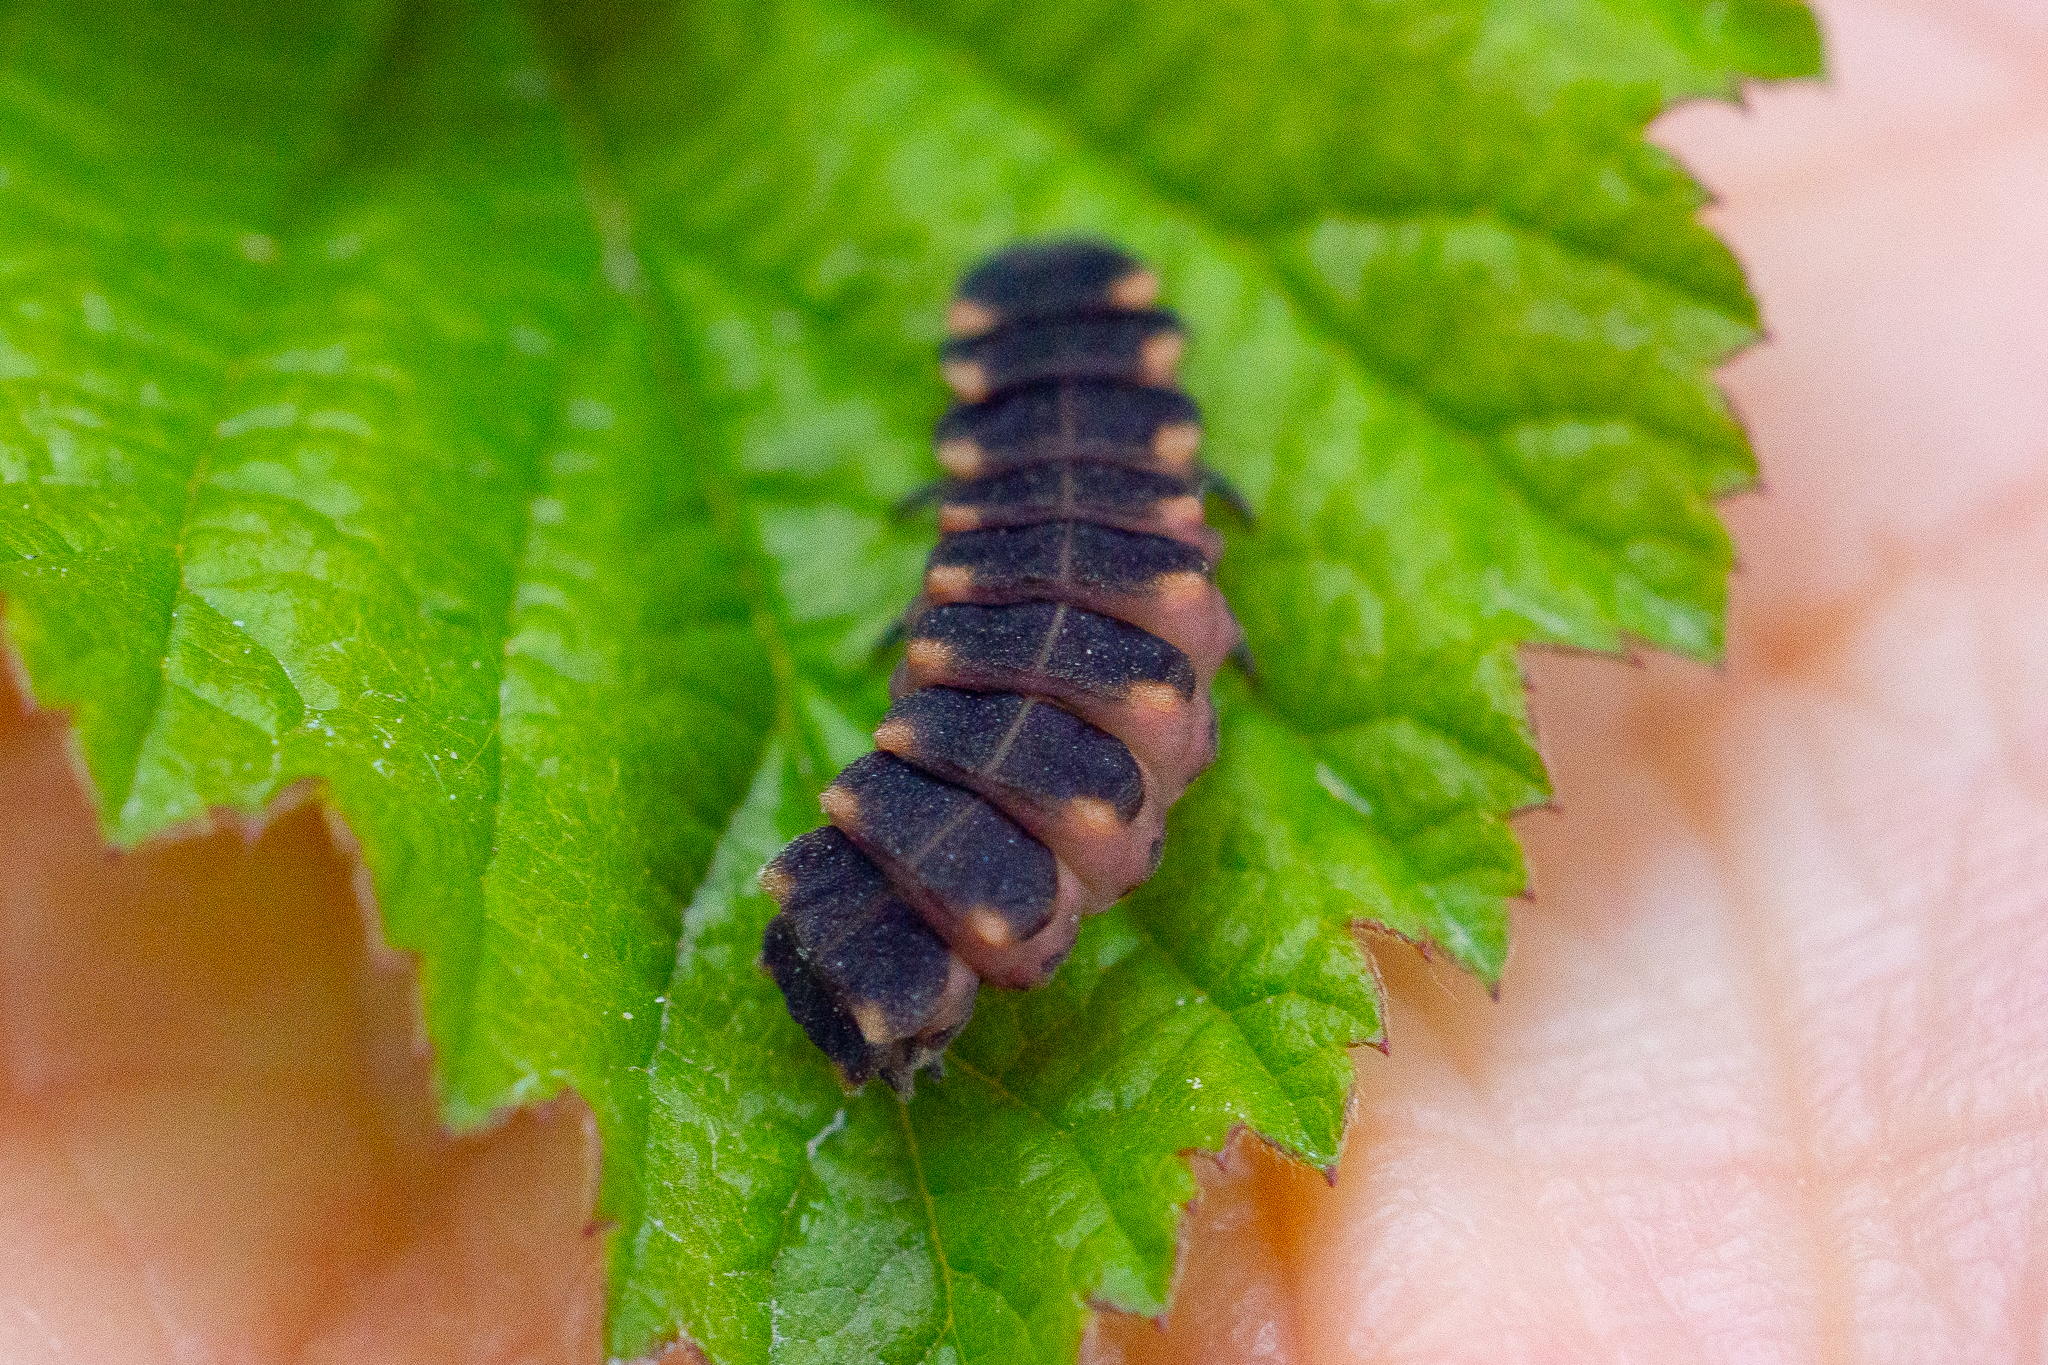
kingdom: Animalia
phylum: Arthropoda
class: Insecta
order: Coleoptera
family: Lampyridae
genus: Lampyris
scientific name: Lampyris noctiluca
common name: Glow-worm
